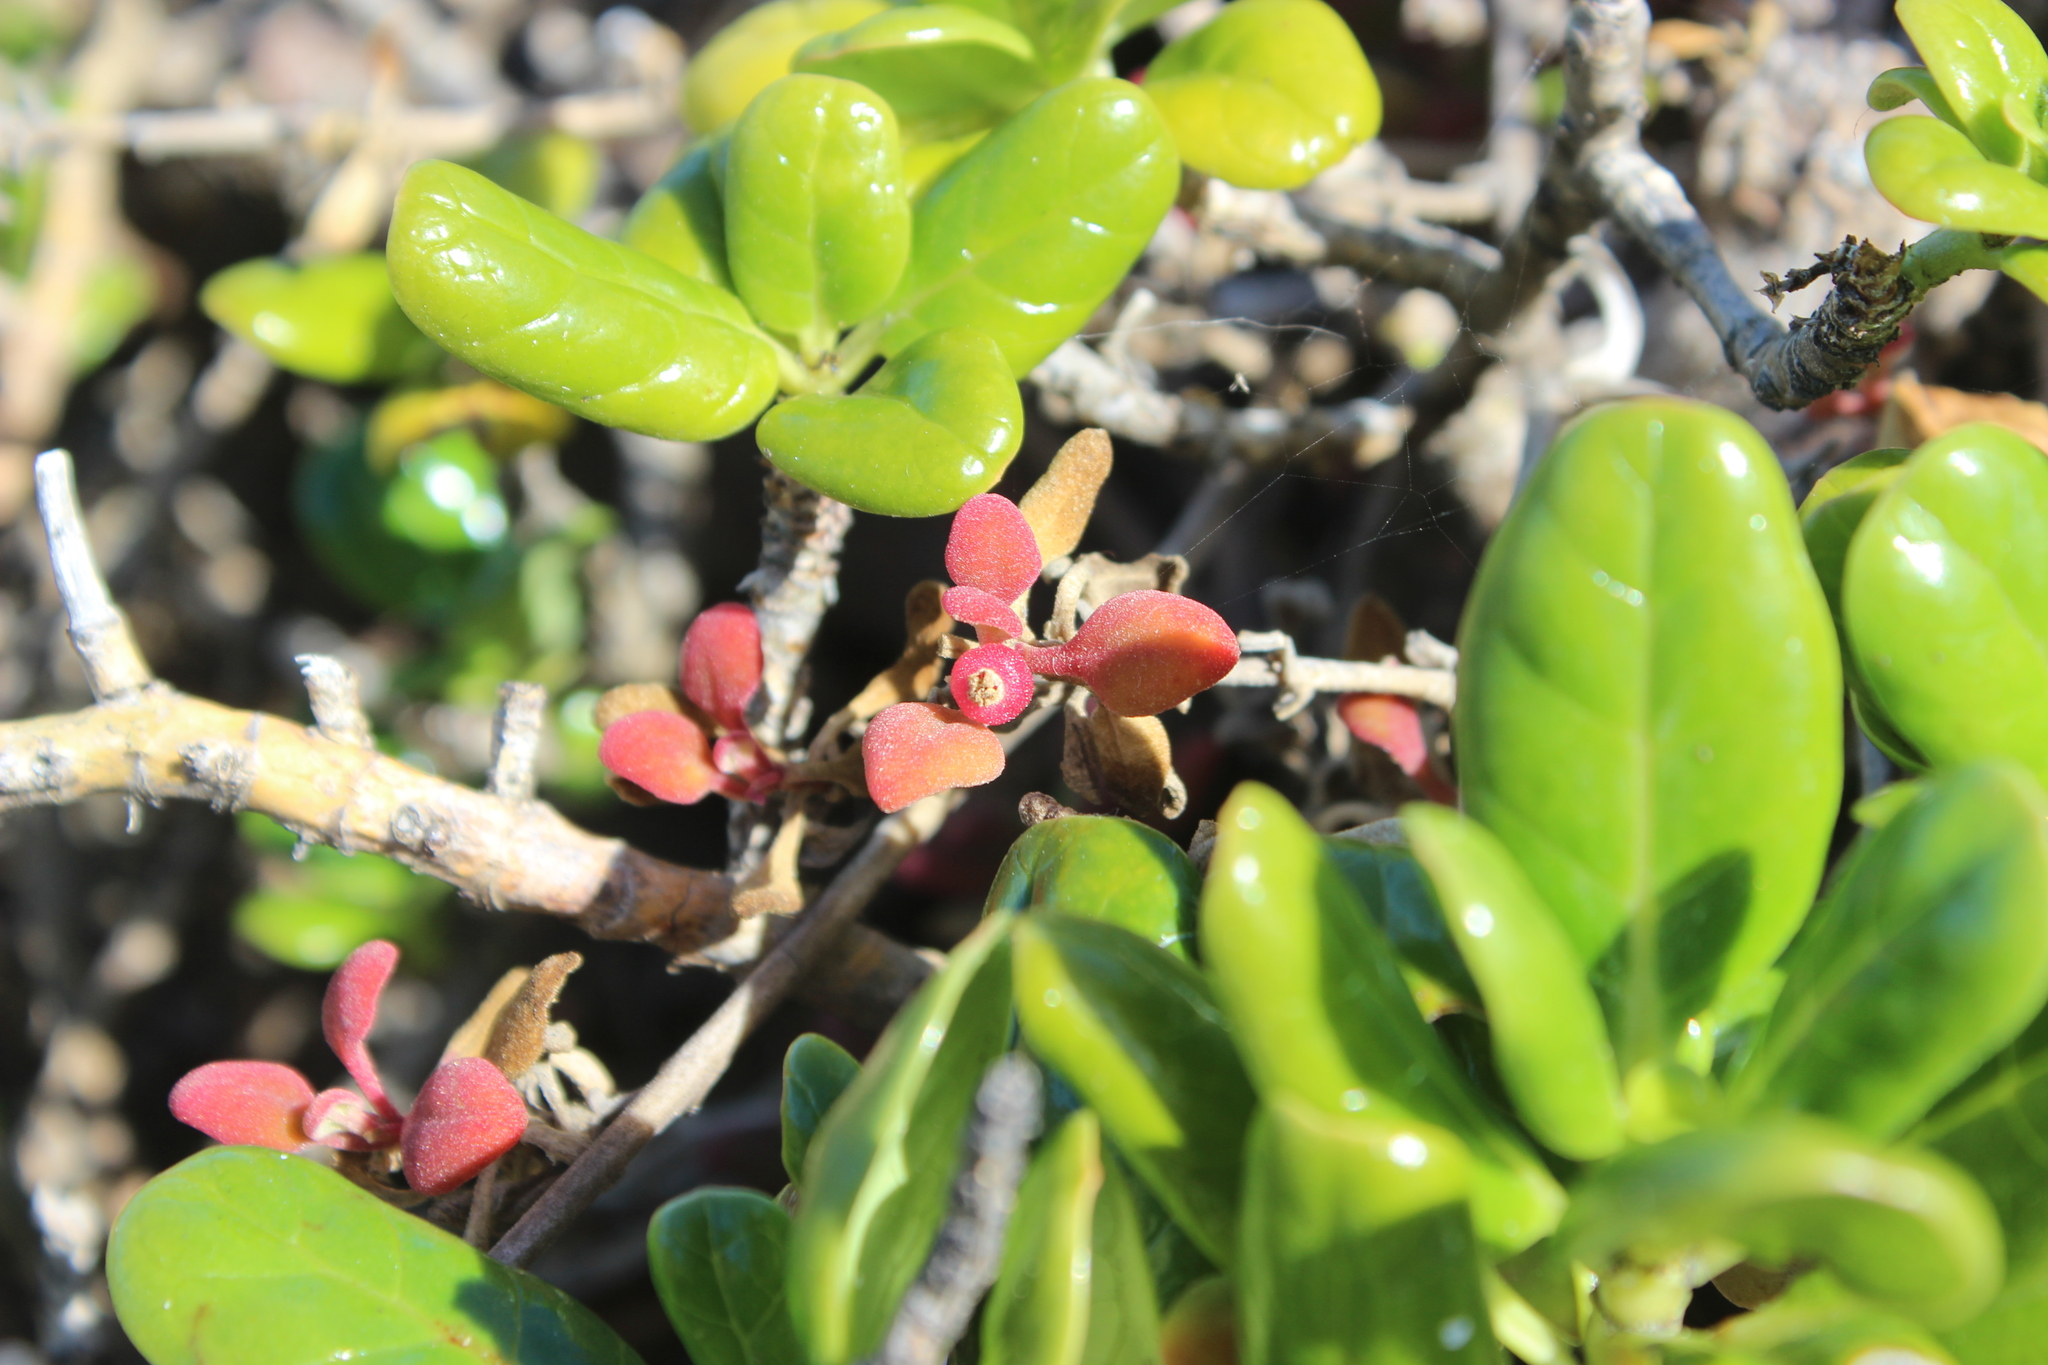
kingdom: Plantae
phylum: Tracheophyta
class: Magnoliopsida
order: Caryophyllales
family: Aizoaceae
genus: Tetragonia
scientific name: Tetragonia implexicoma
